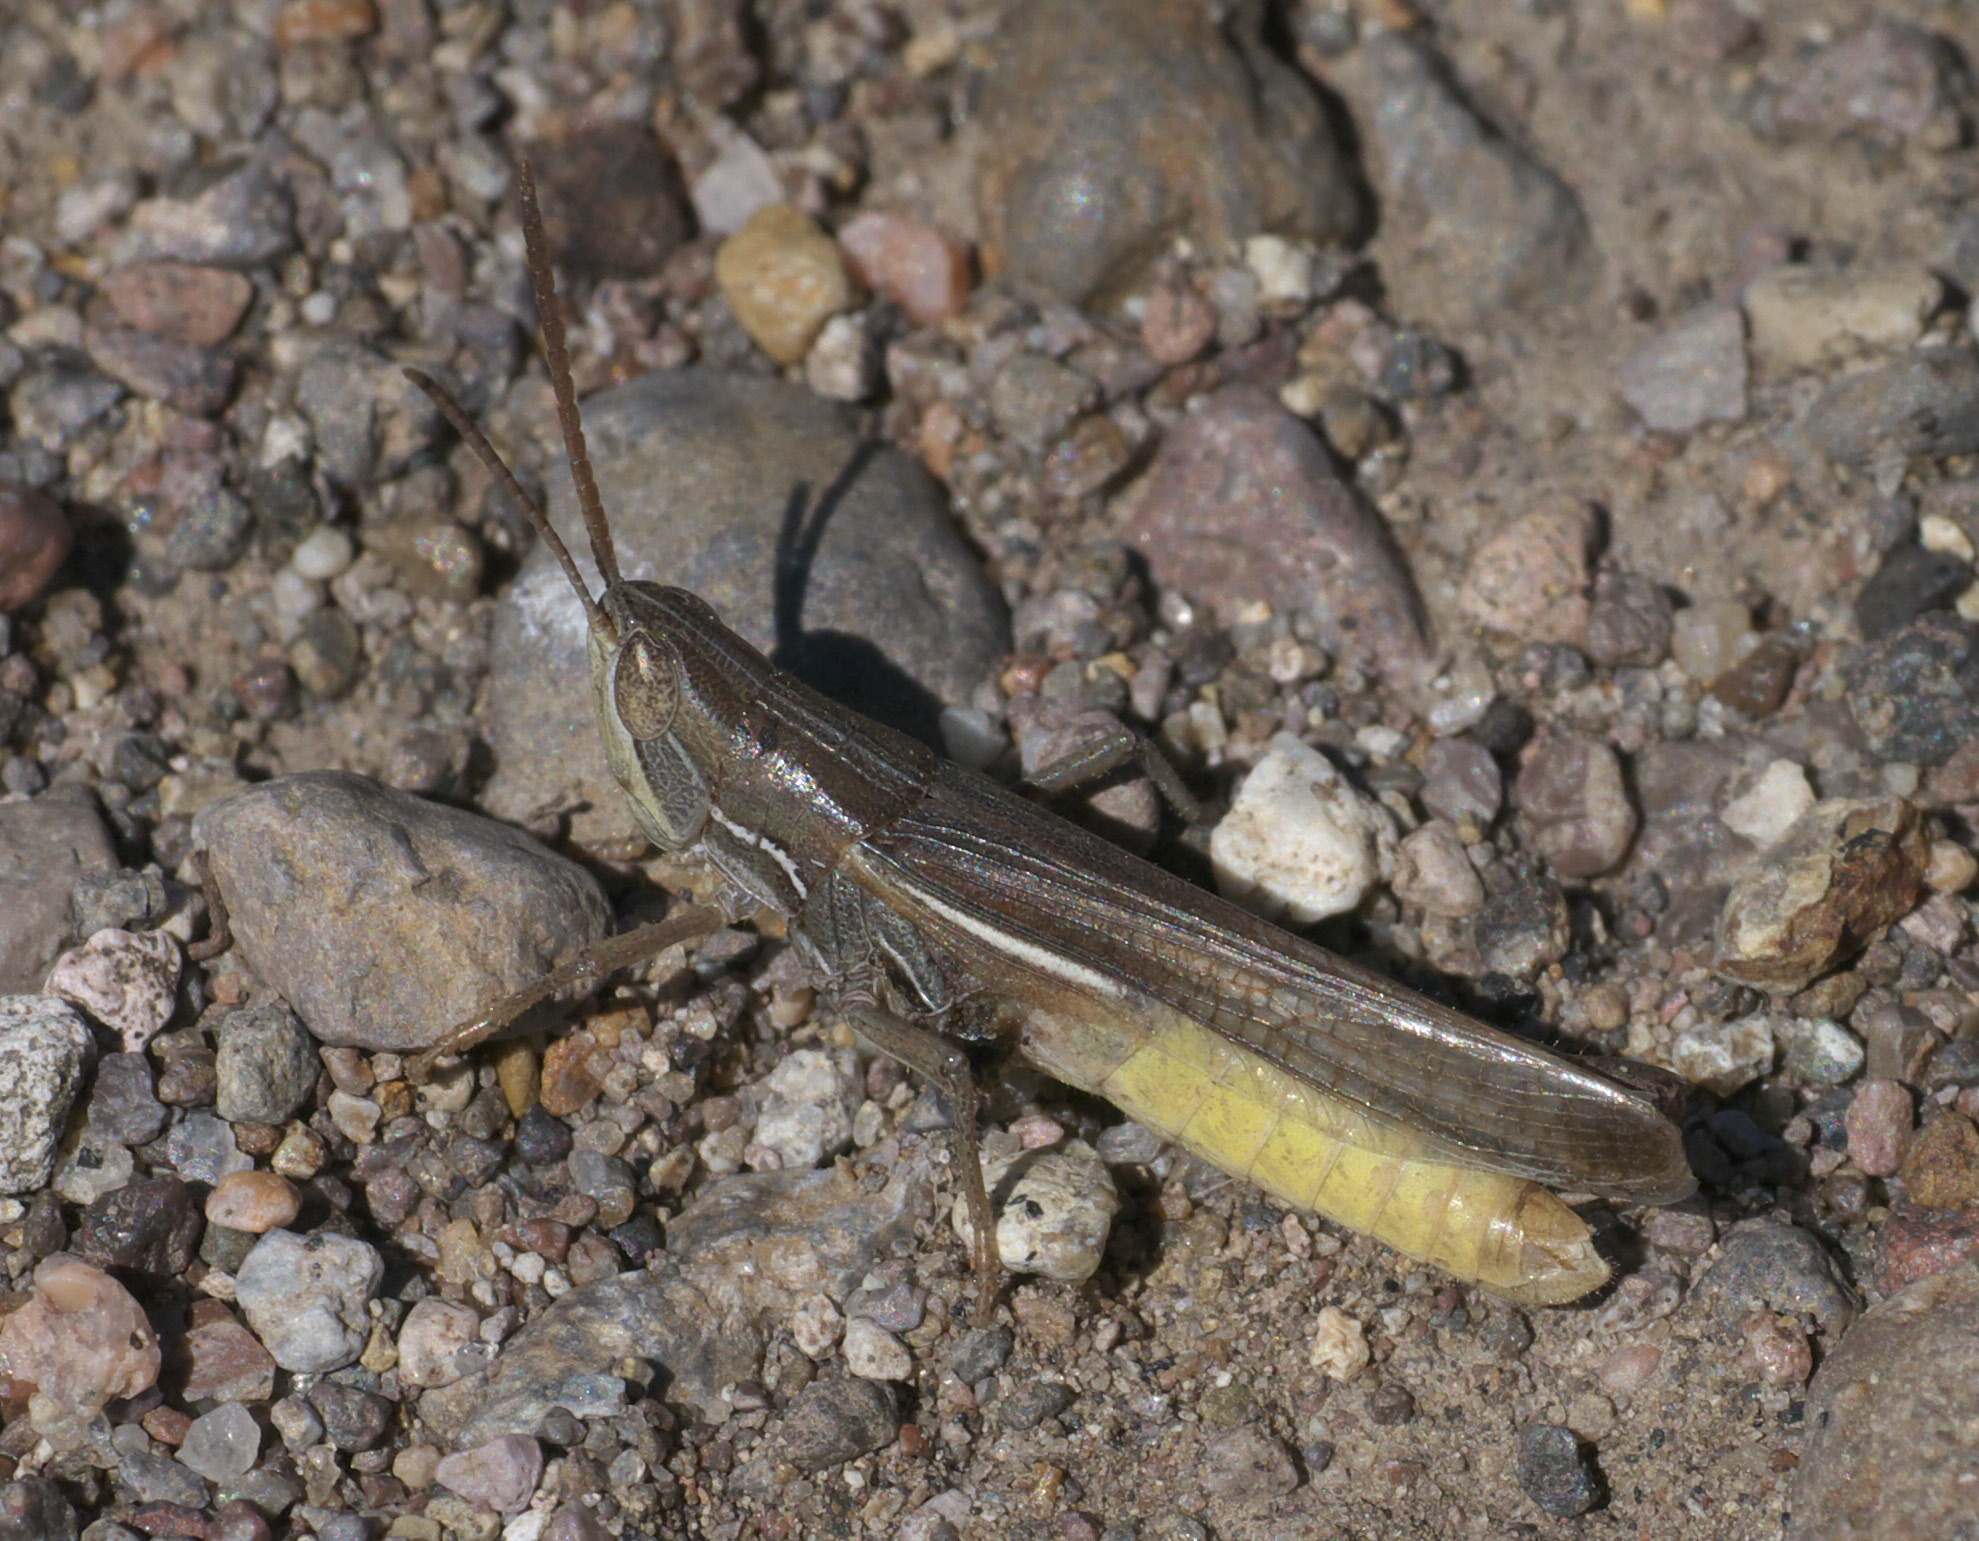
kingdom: Animalia
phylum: Arthropoda
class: Insecta
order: Orthoptera
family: Acrididae
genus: Amphitornus
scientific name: Amphitornus coloradus
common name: Striped grasshopper
